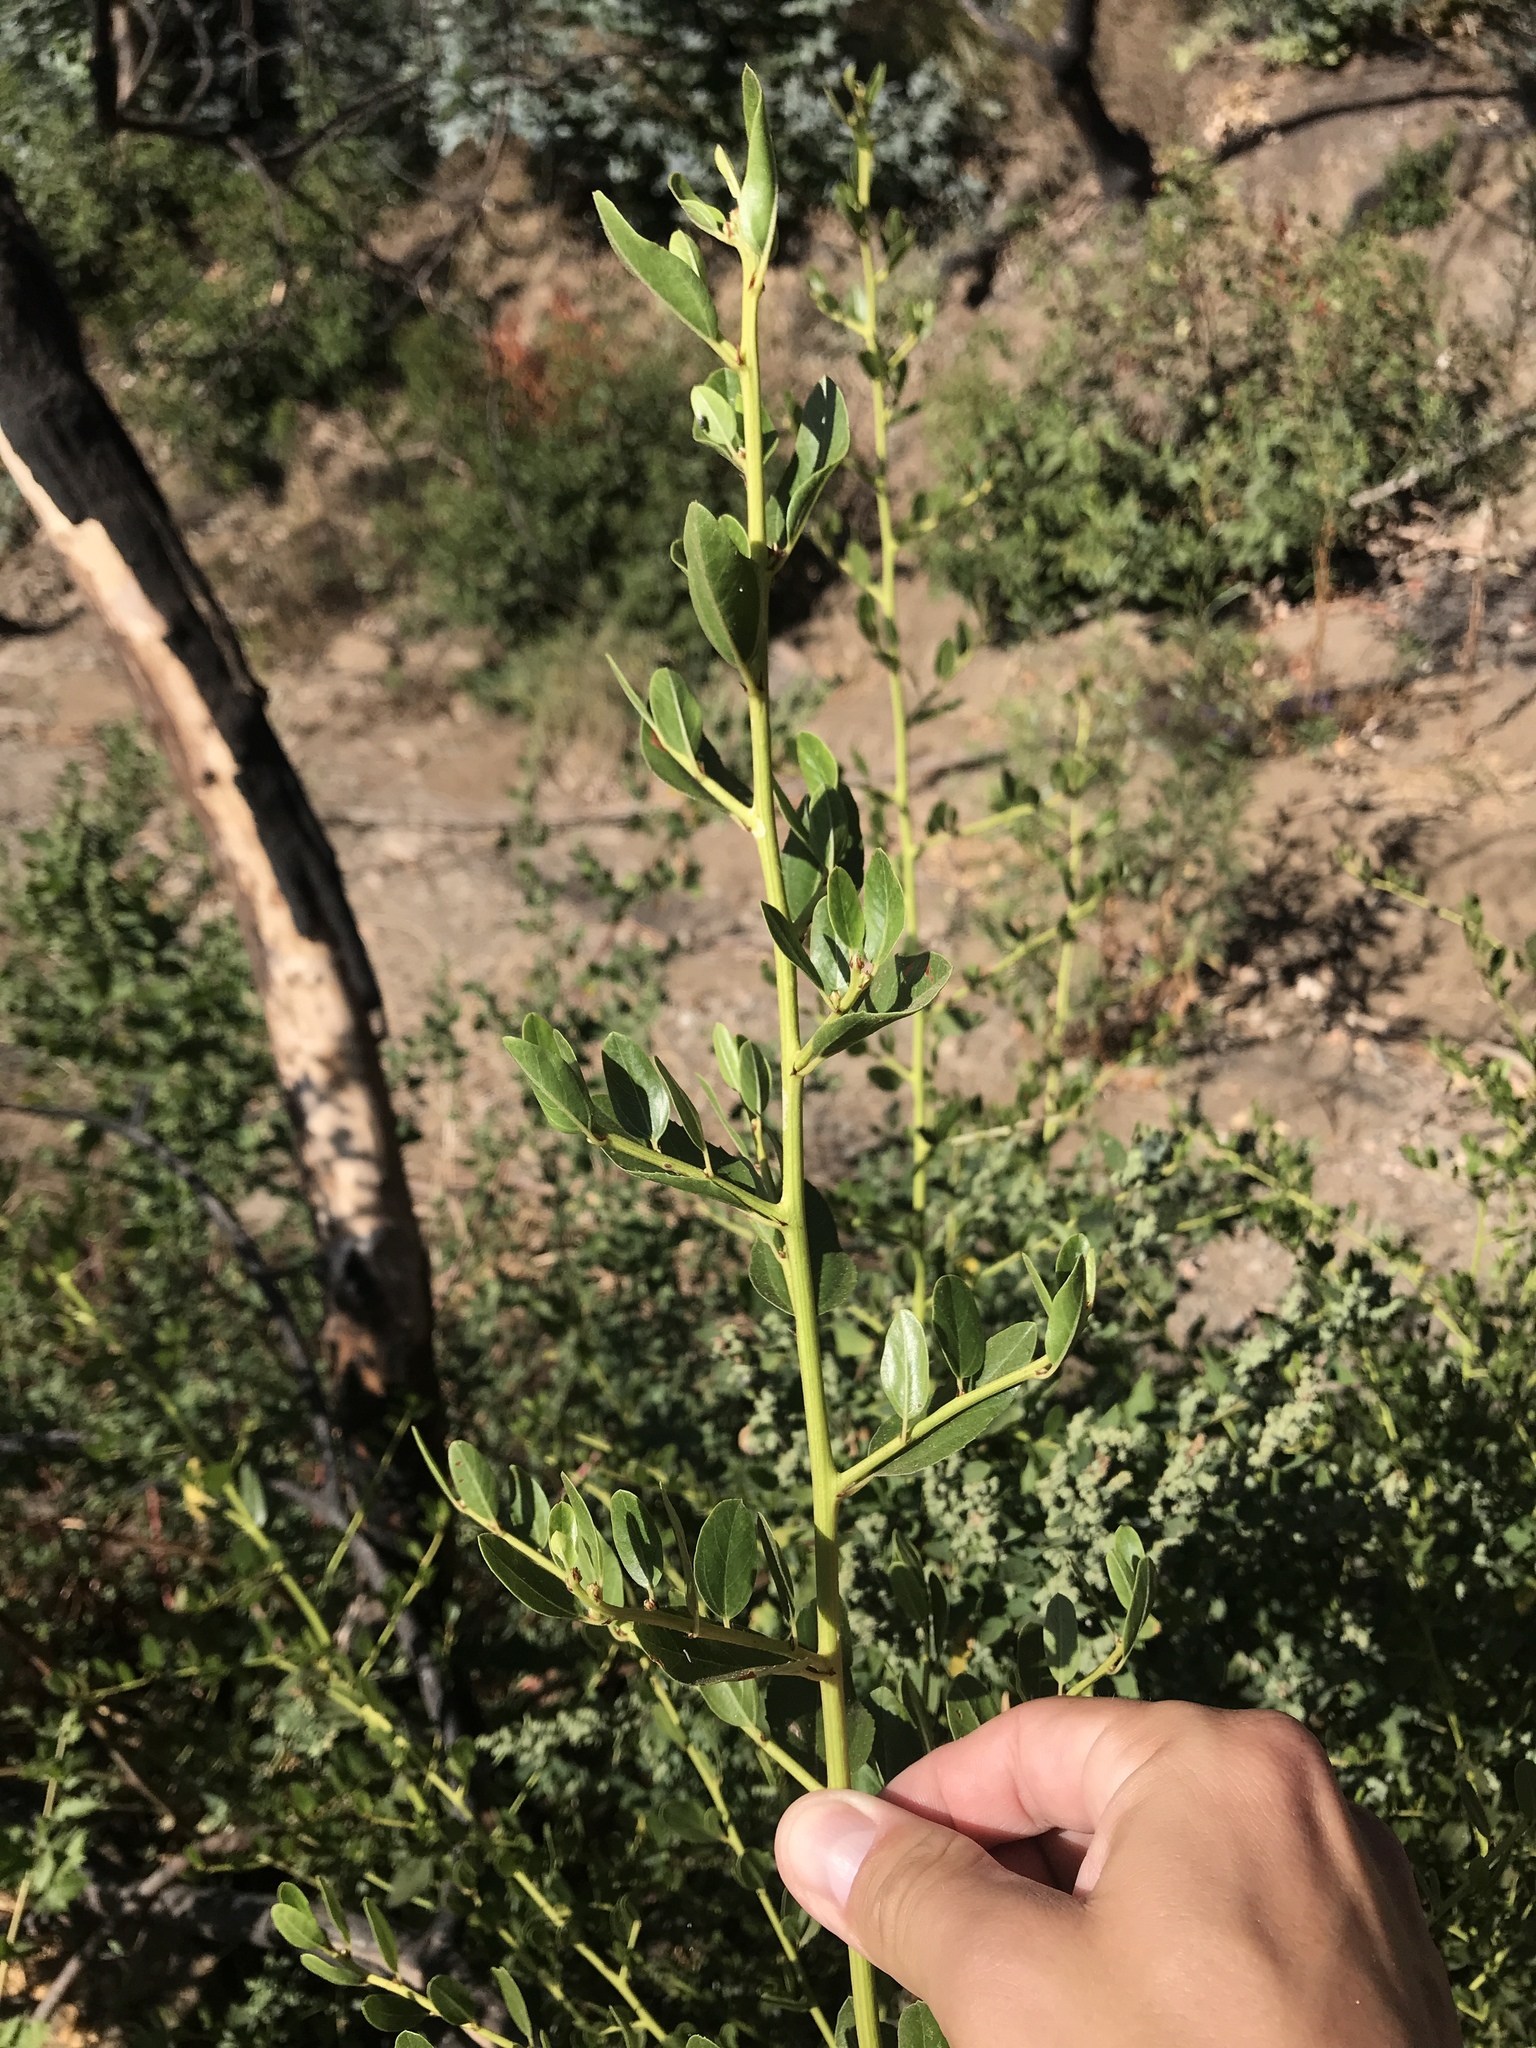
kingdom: Plantae
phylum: Tracheophyta
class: Magnoliopsida
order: Rosales
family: Rhamnaceae
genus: Ceanothus
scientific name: Ceanothus spinosus
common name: Greenbark whitethorn
